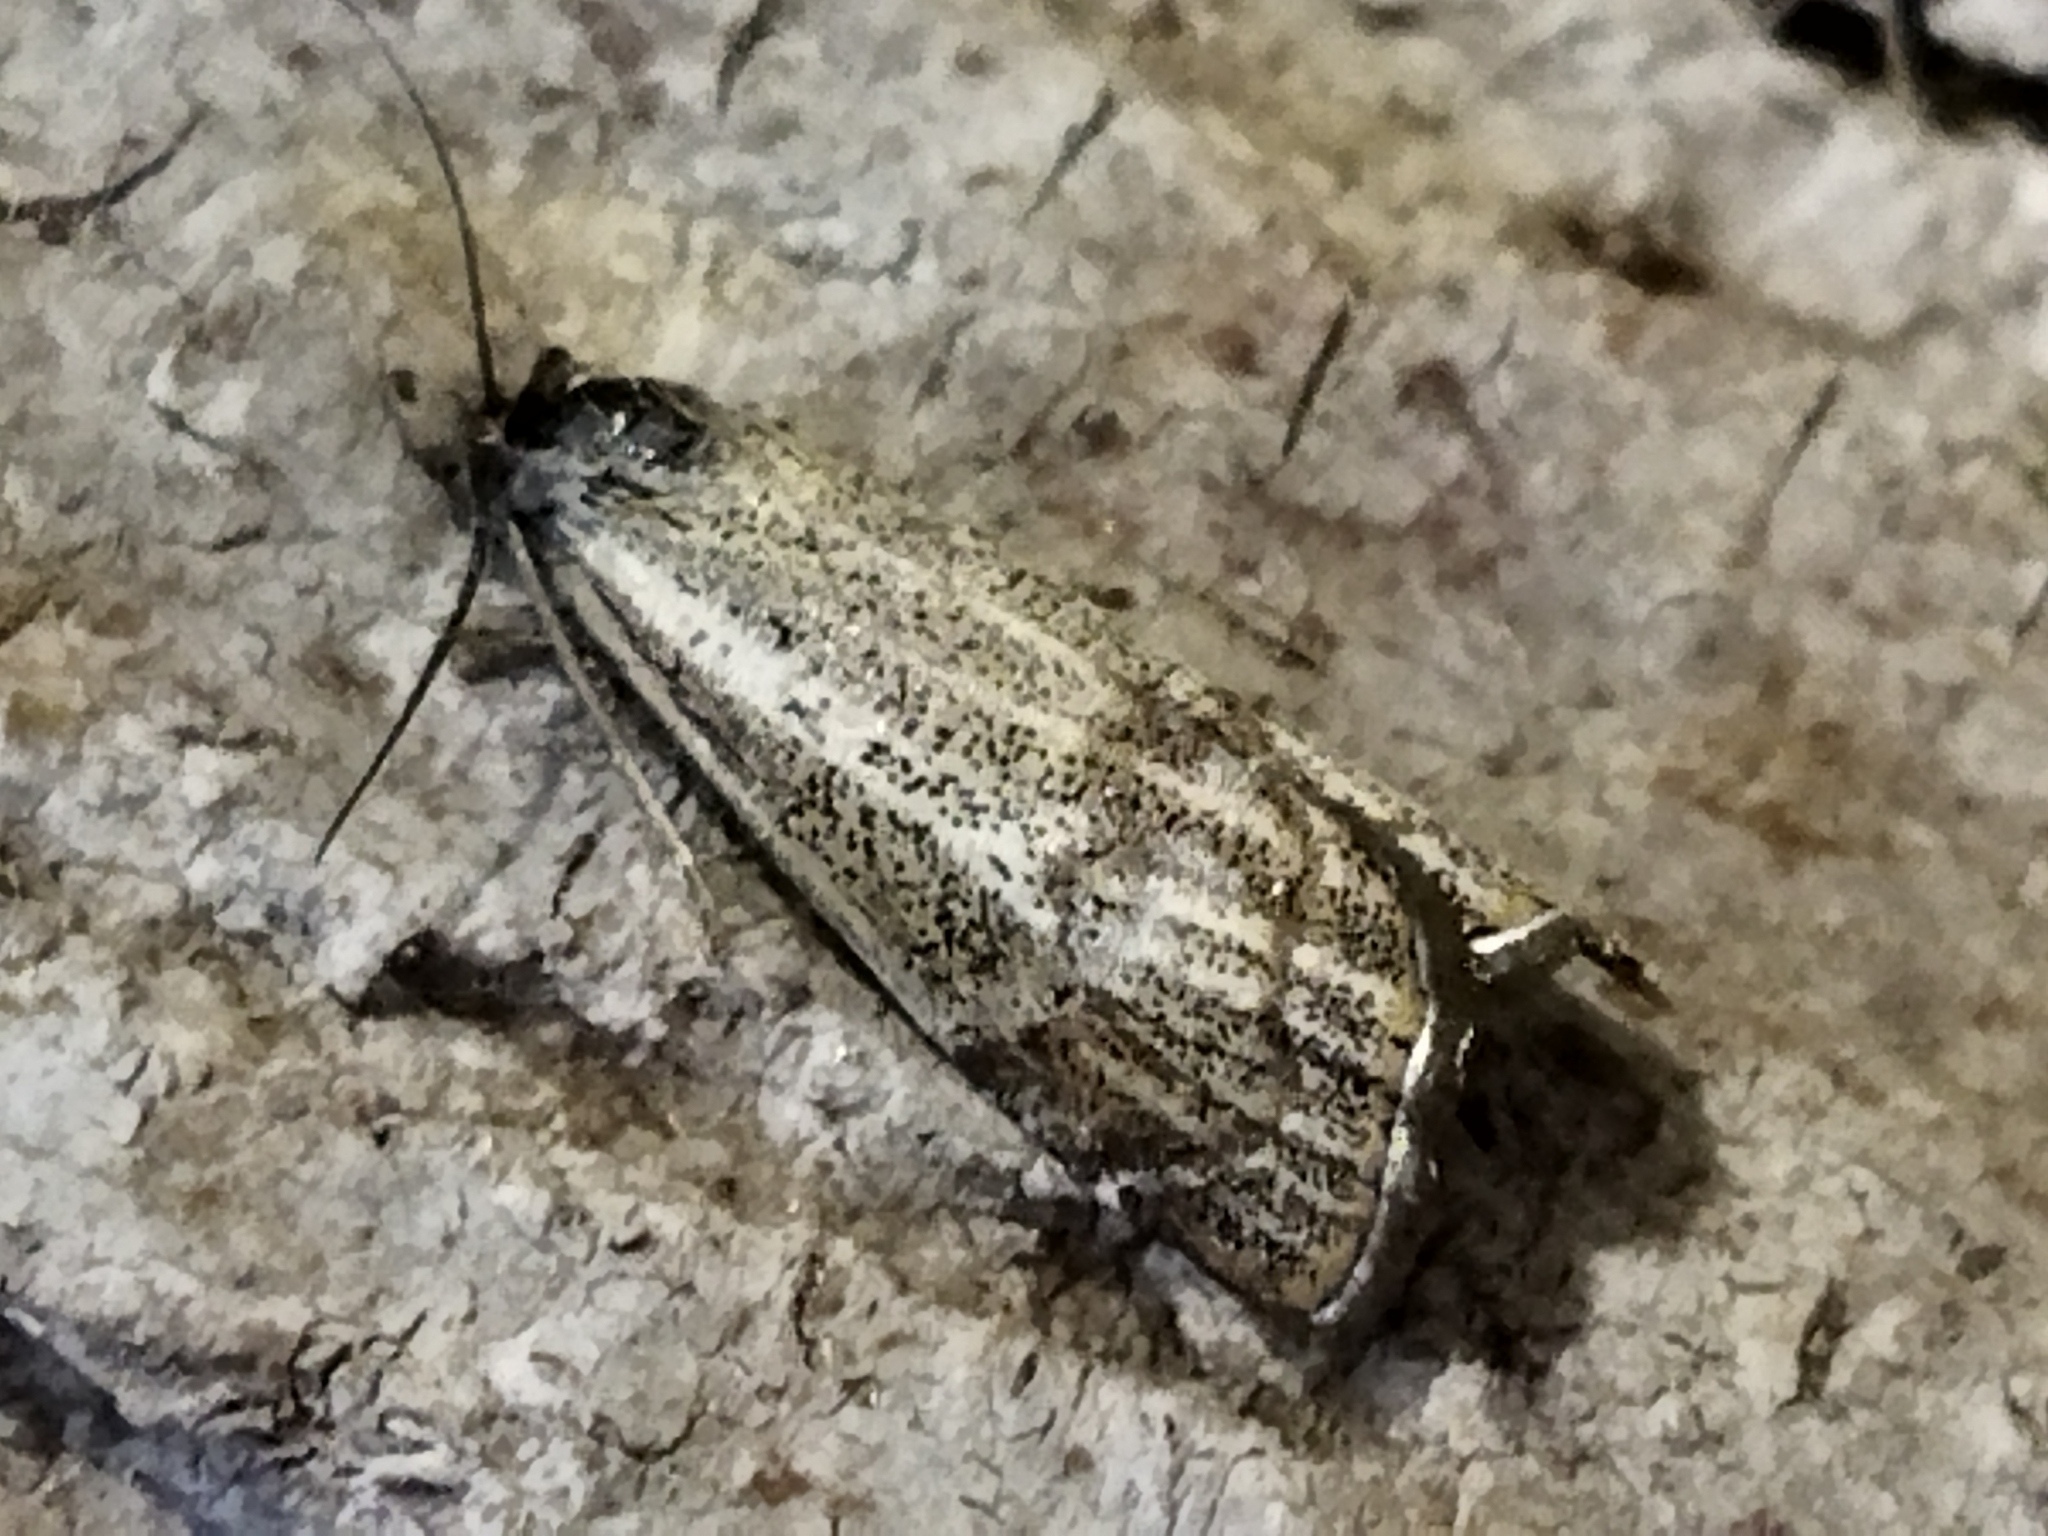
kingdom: Animalia
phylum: Arthropoda
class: Insecta
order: Lepidoptera
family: Crambidae
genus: Thisanotia
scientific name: Thisanotia chrysonuchella
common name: Powdered grass-veneer
